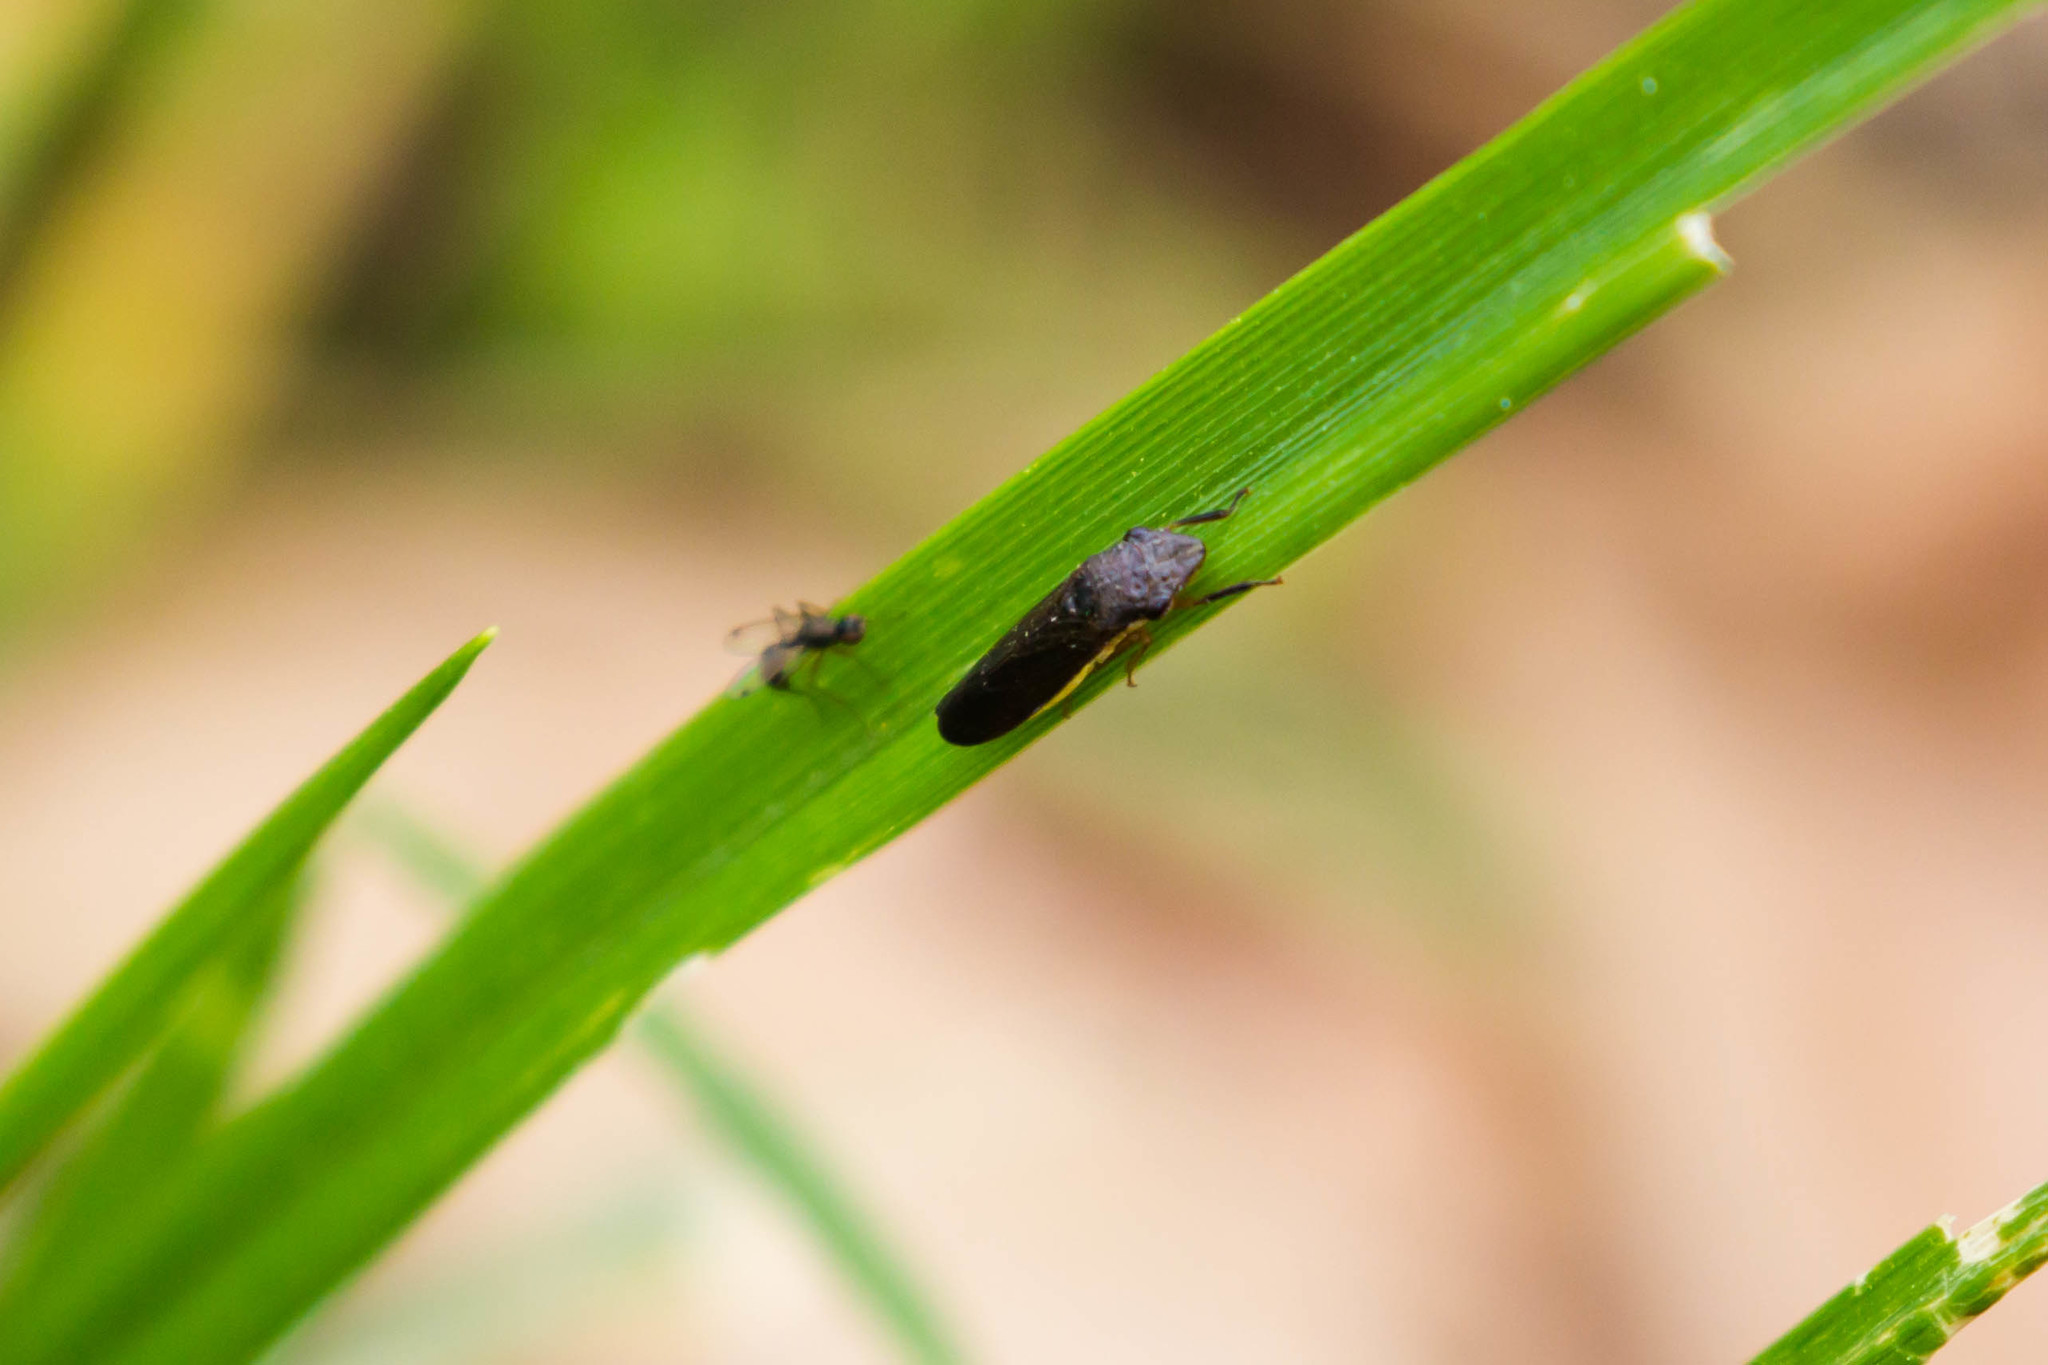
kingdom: Animalia
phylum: Arthropoda
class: Insecta
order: Hemiptera
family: Cicadellidae
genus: Homalodisca
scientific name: Homalodisca insolita
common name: Johnson grass sharpshooter
